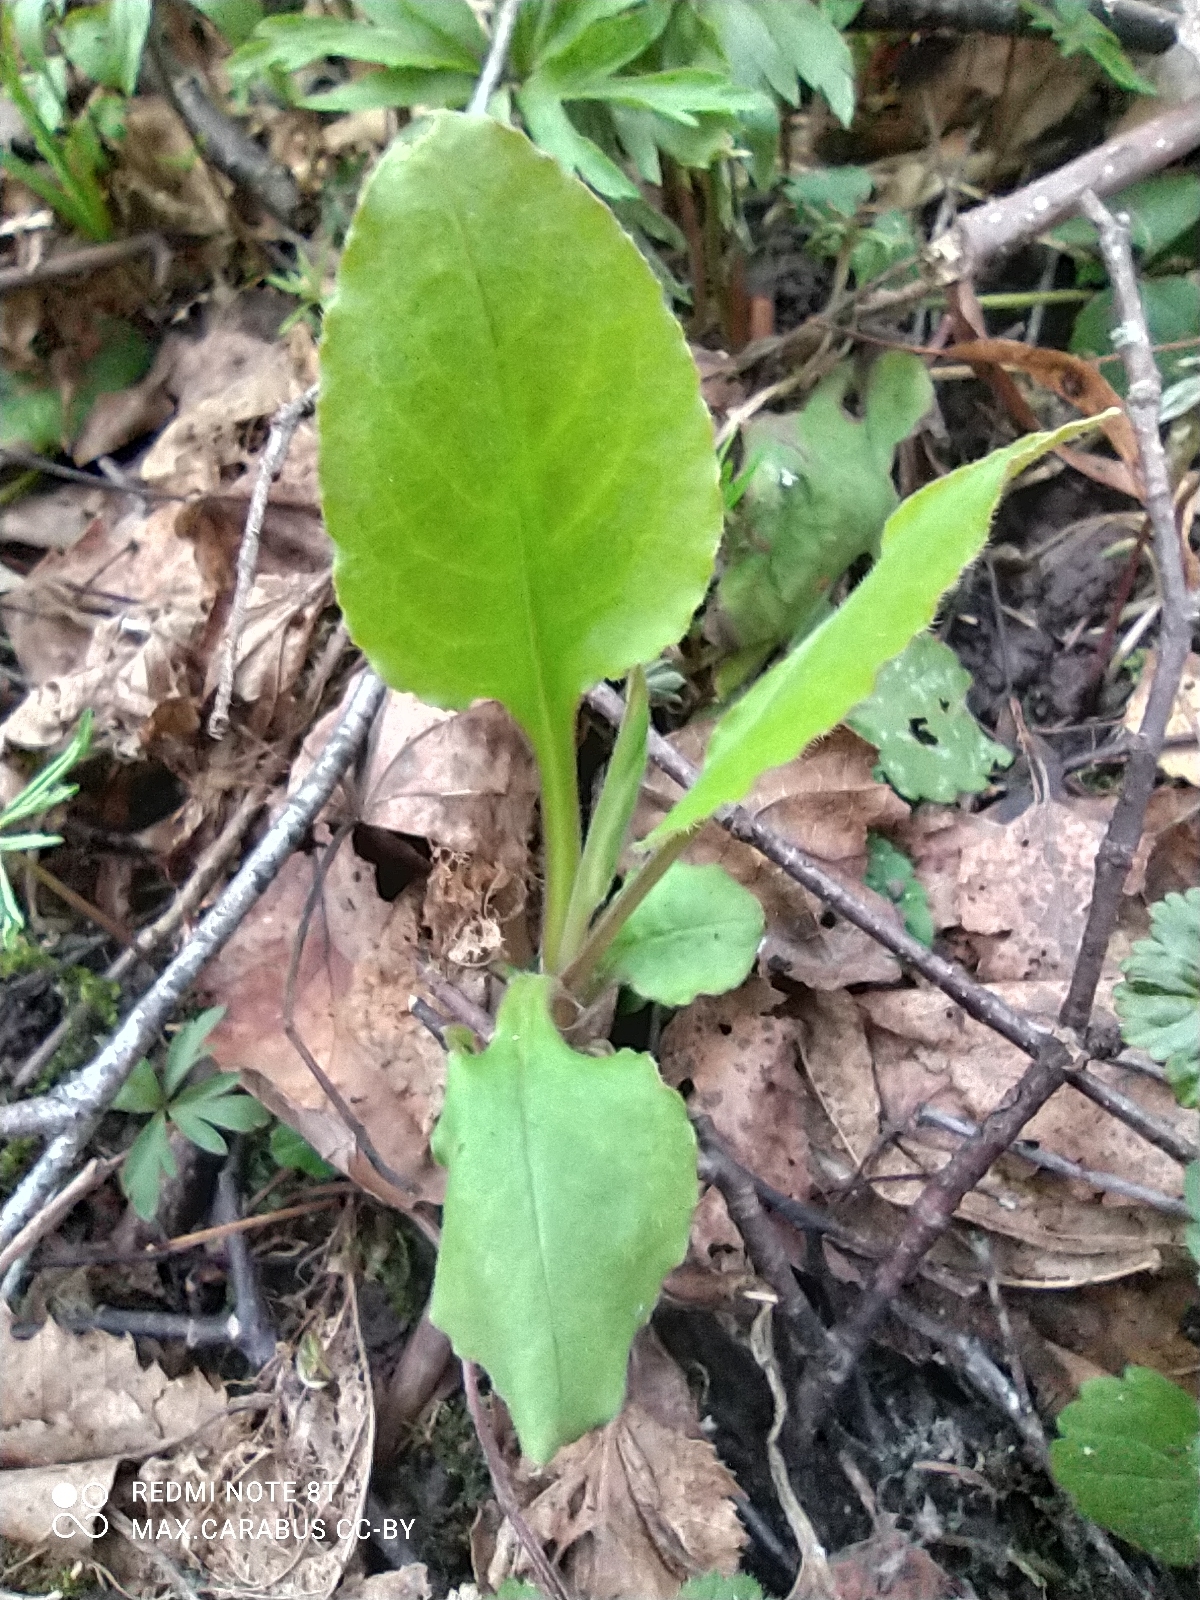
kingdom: Plantae
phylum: Tracheophyta
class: Magnoliopsida
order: Asterales
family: Asteraceae
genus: Solidago
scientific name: Solidago virgaurea
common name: Goldenrod
